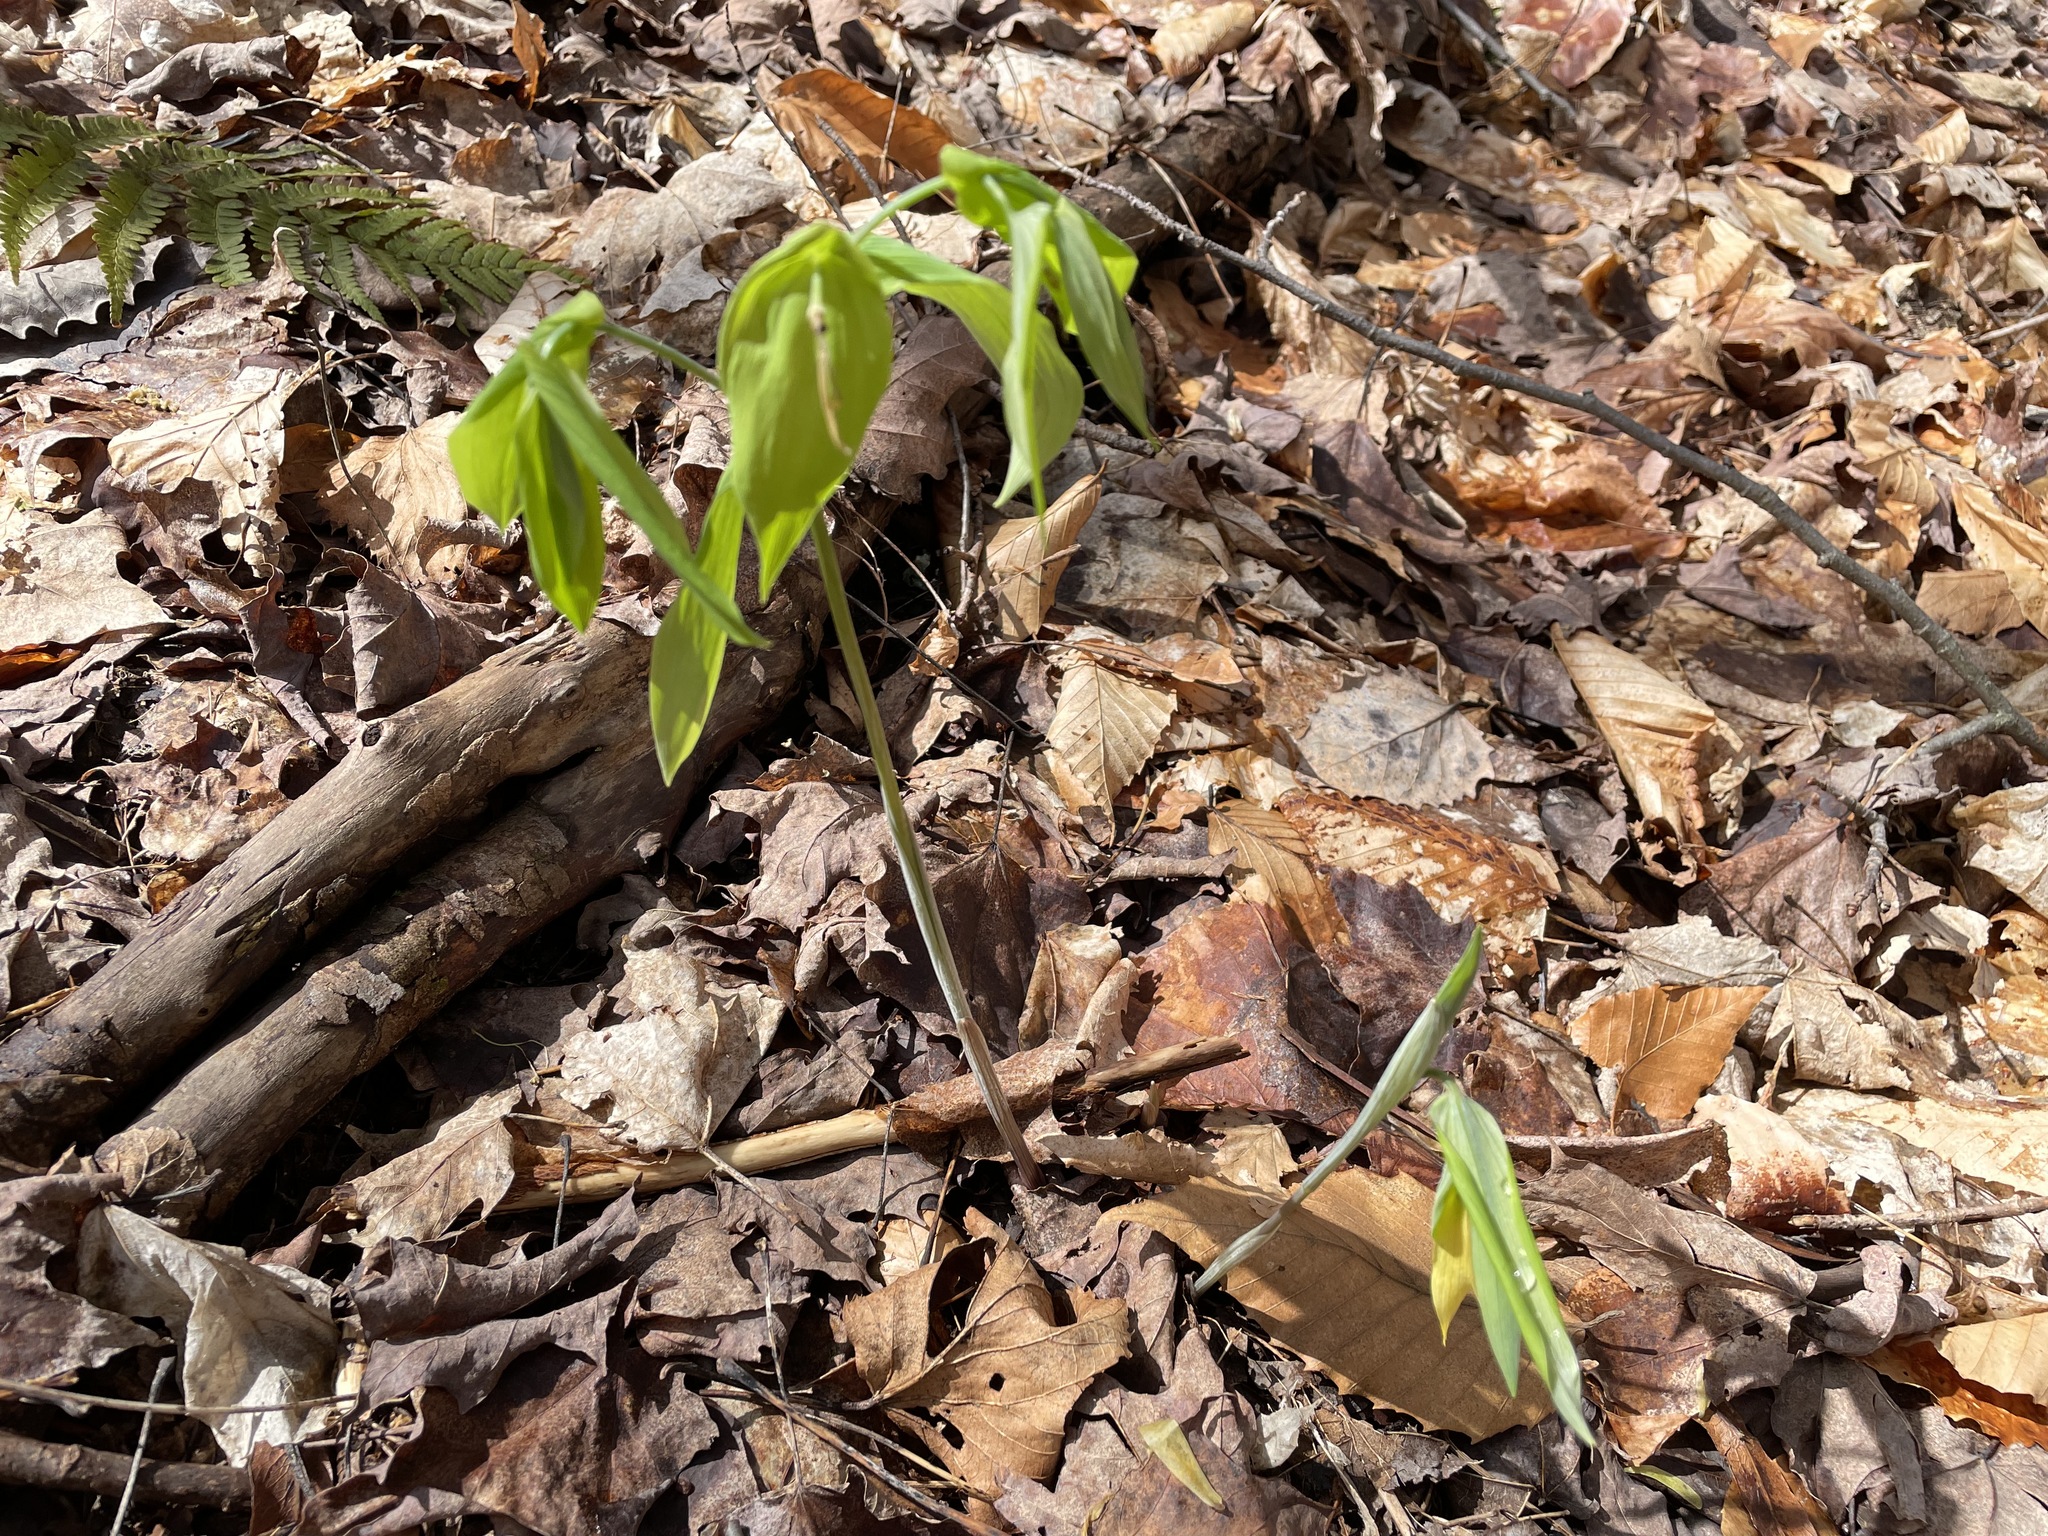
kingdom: Plantae
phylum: Tracheophyta
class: Liliopsida
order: Liliales
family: Colchicaceae
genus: Uvularia
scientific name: Uvularia grandiflora
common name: Bellwort
